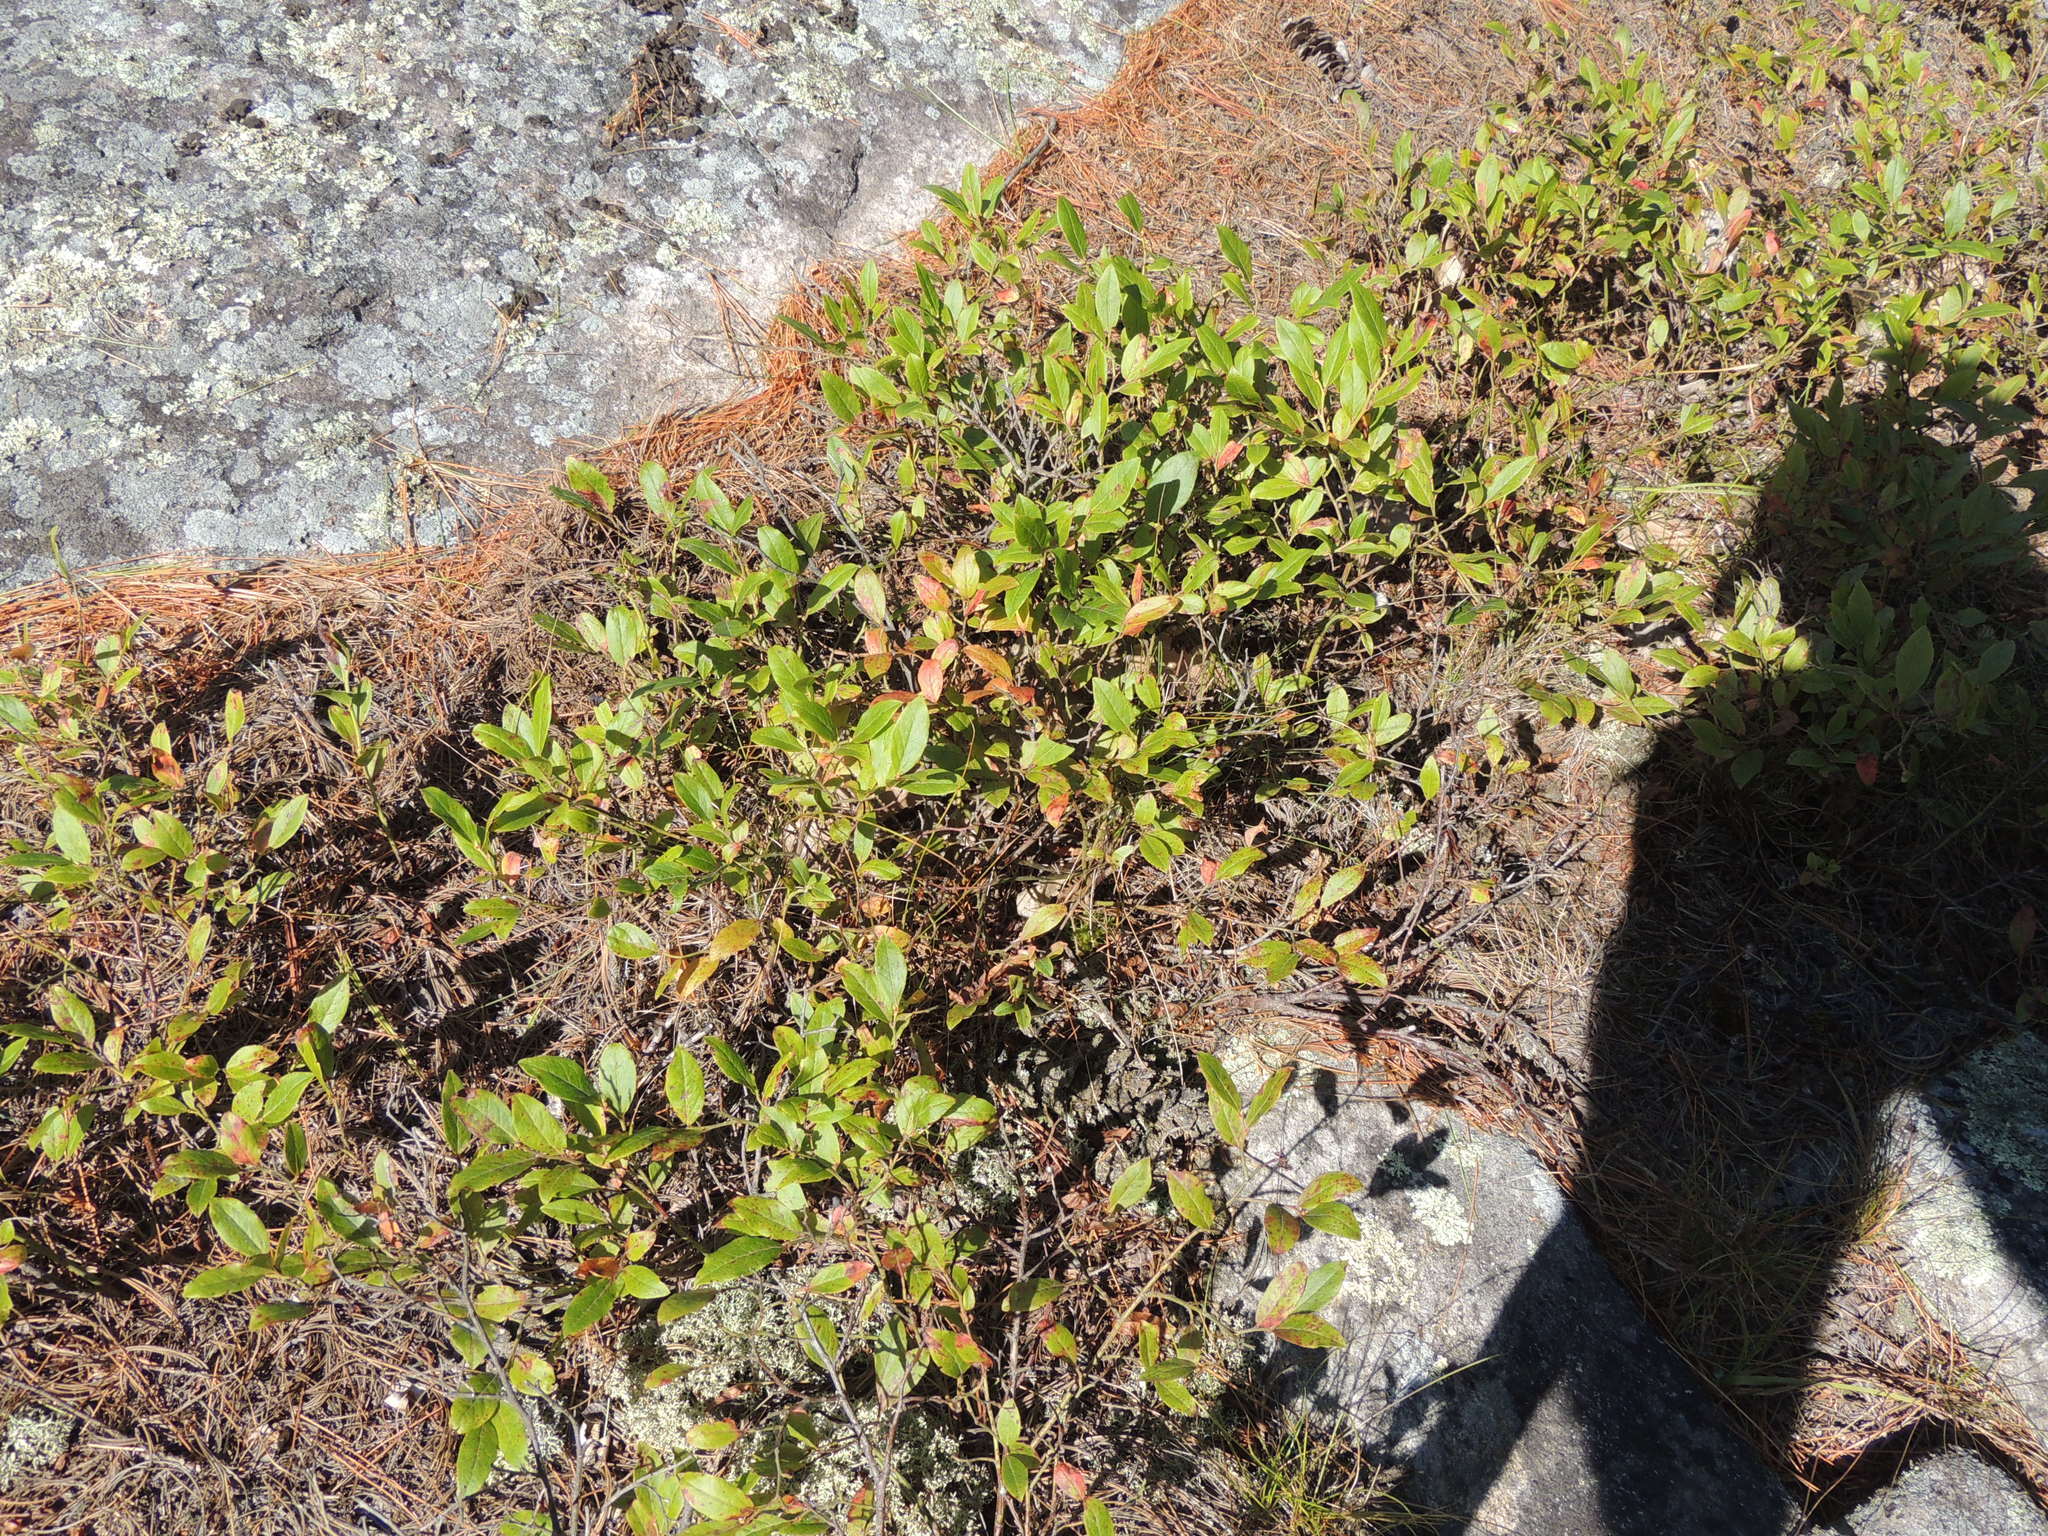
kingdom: Plantae
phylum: Tracheophyta
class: Magnoliopsida
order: Ericales
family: Ericaceae
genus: Vaccinium
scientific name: Vaccinium angustifolium
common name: Early lowbush blueberry
